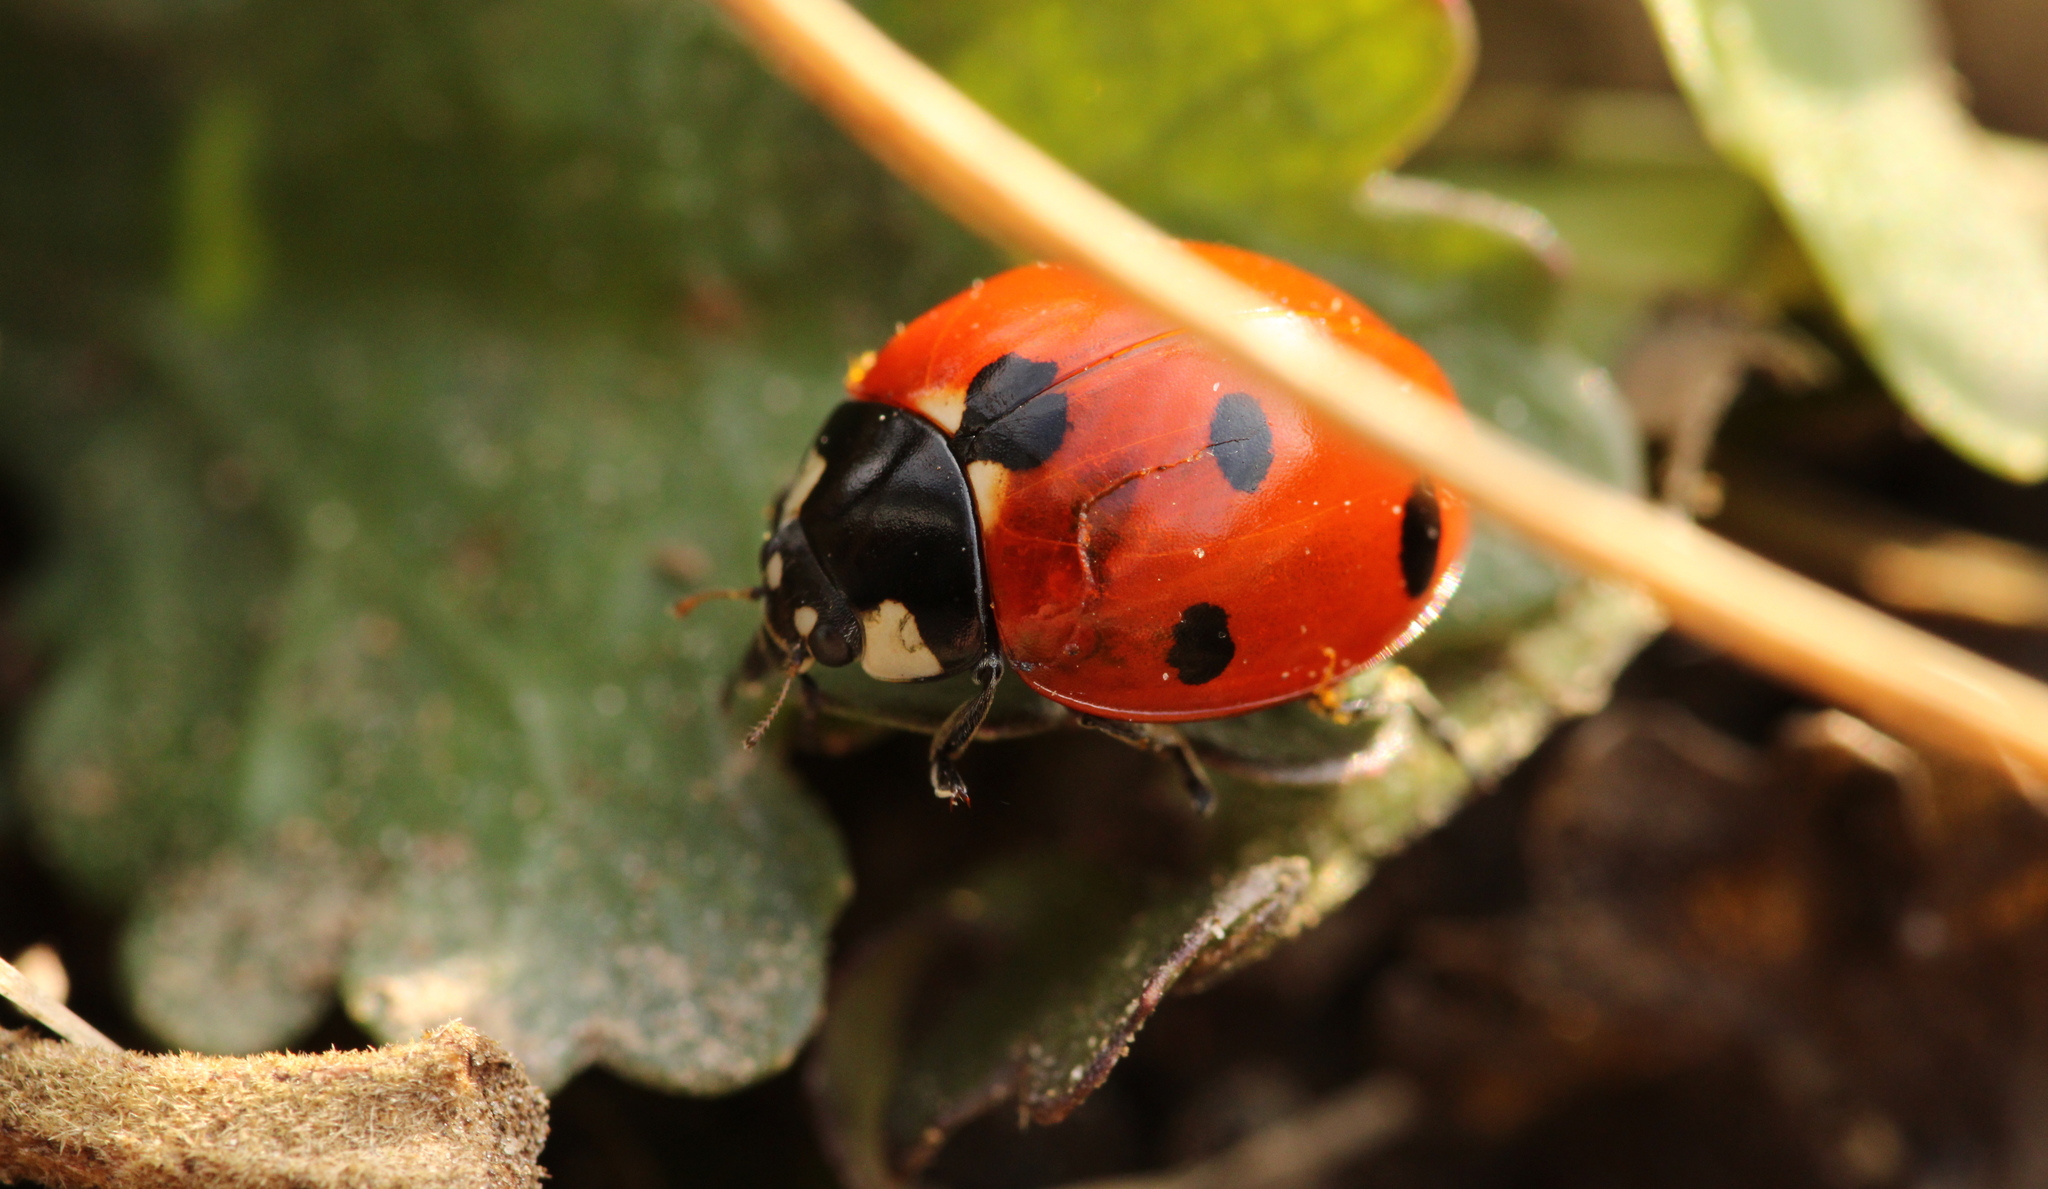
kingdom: Animalia
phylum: Arthropoda
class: Insecta
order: Coleoptera
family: Coccinellidae
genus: Coccinella
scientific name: Coccinella septempunctata
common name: Sevenspotted lady beetle
